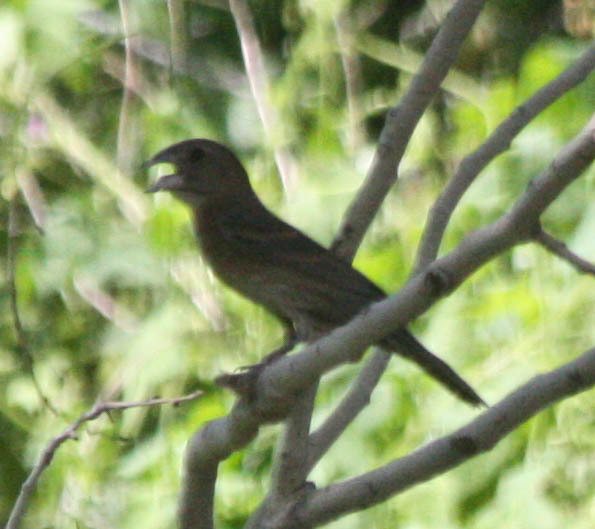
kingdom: Animalia
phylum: Chordata
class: Aves
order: Passeriformes
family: Cardinalidae
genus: Passerina
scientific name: Passerina caerulea
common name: Blue grosbeak
